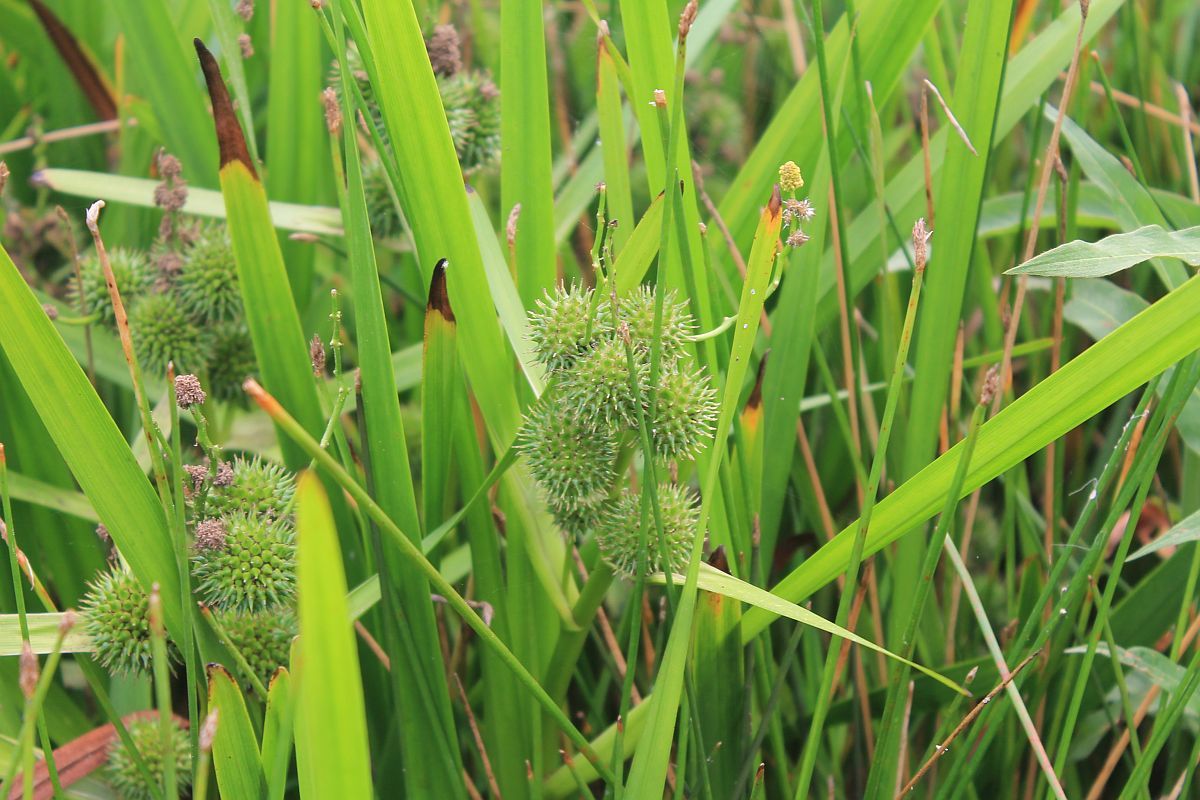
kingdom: Plantae
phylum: Tracheophyta
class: Liliopsida
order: Poales
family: Typhaceae
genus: Sparganium
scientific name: Sparganium erectum
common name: Branched bur-reed
